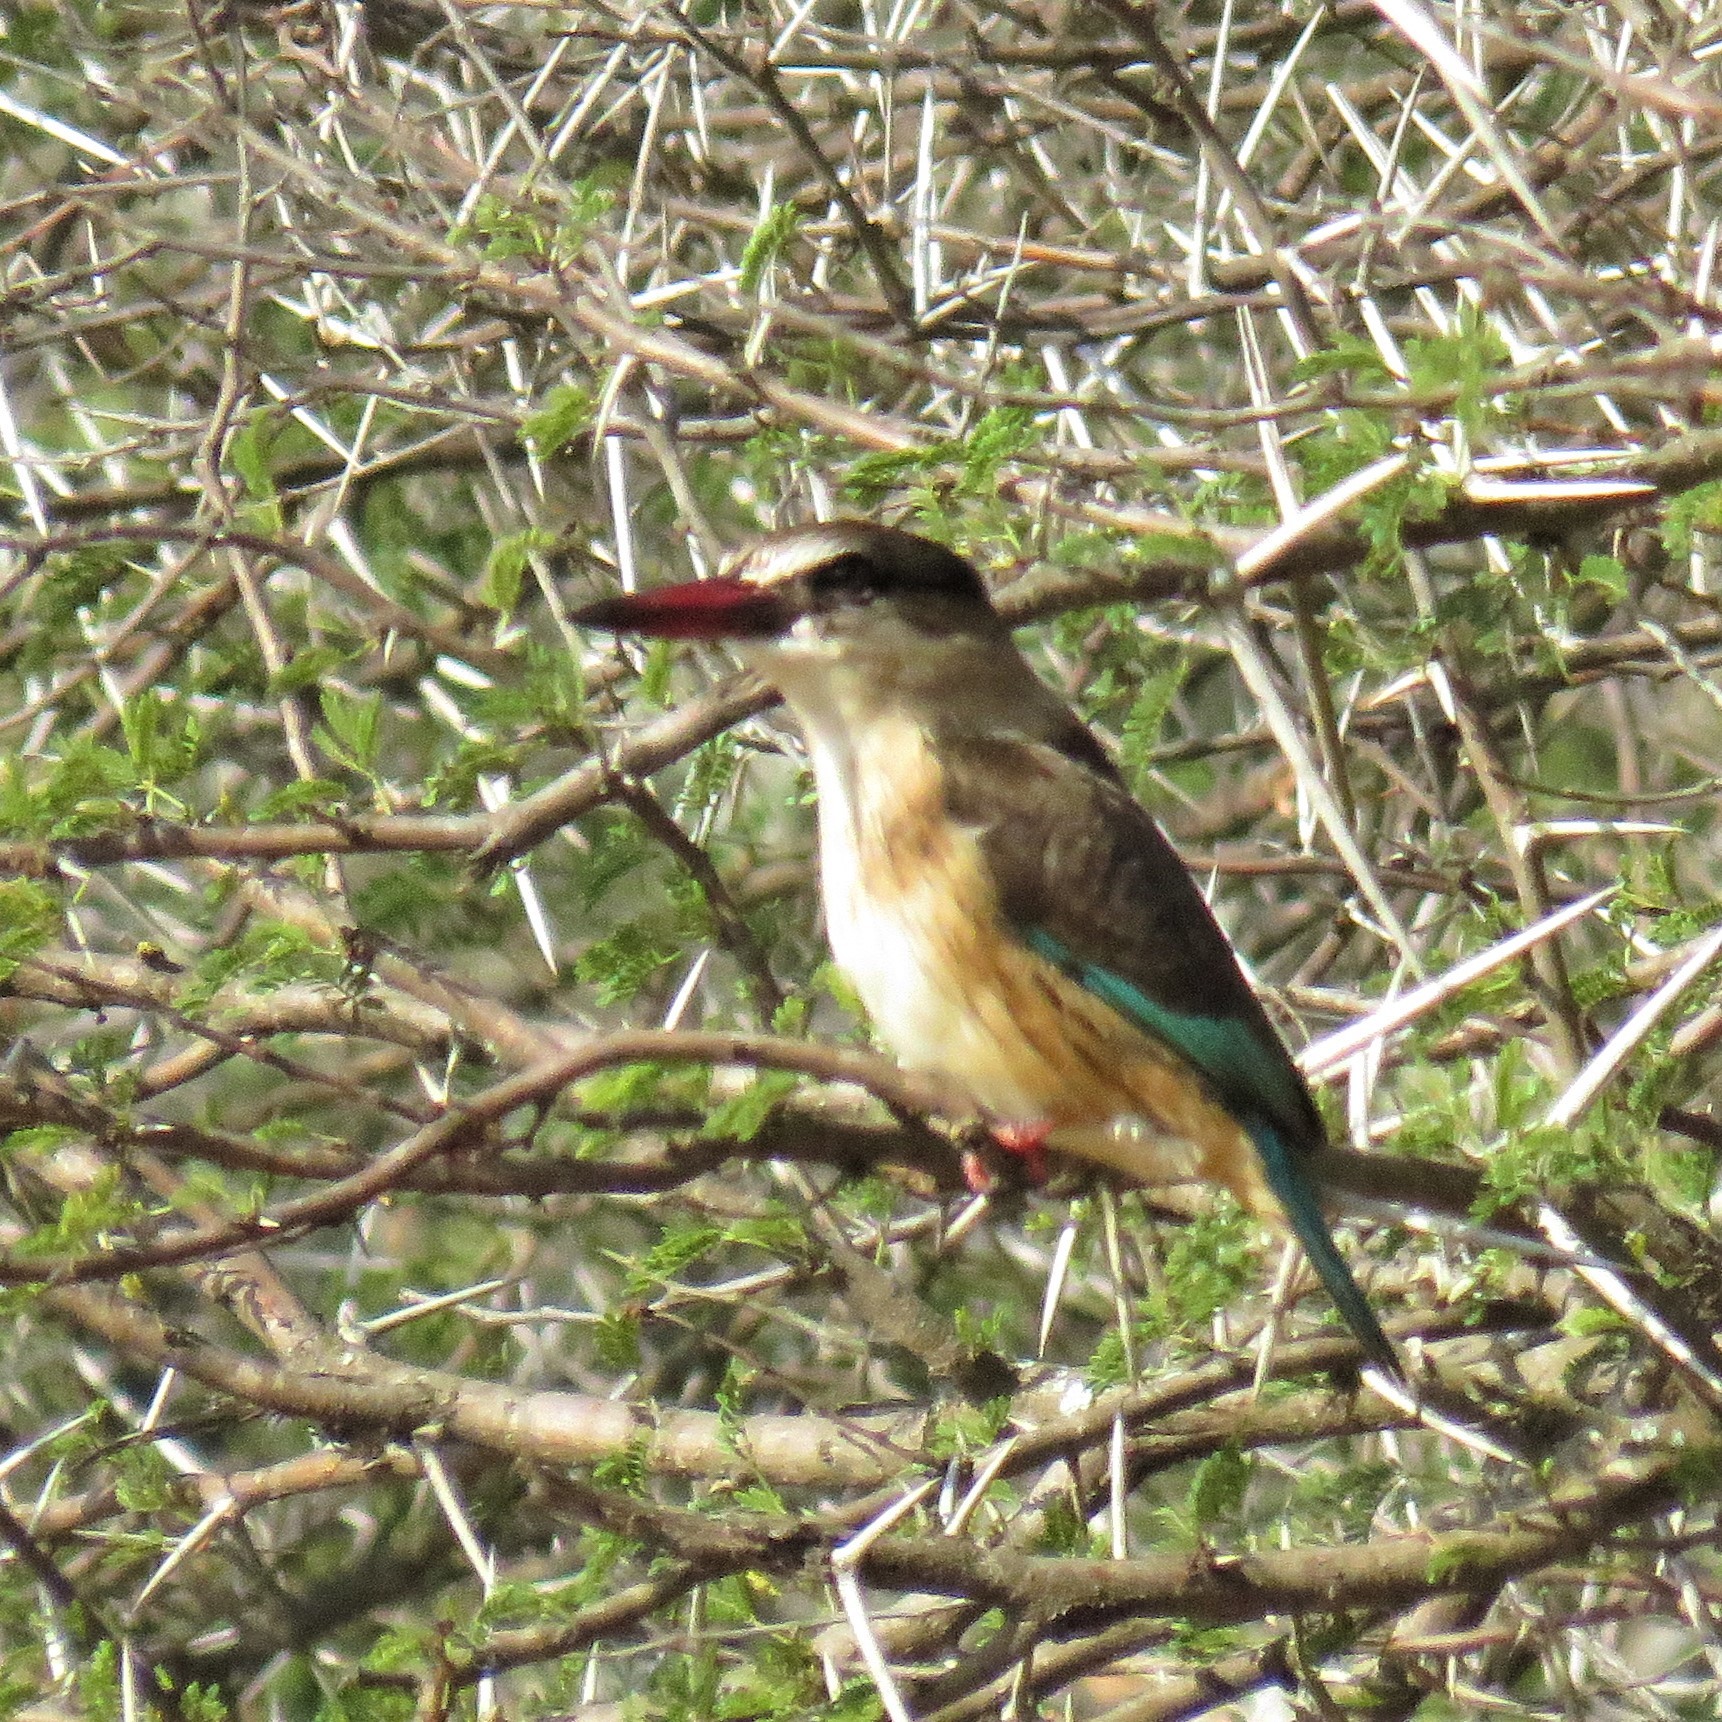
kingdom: Animalia
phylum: Chordata
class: Aves
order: Coraciiformes
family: Alcedinidae
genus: Halcyon
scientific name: Halcyon albiventris
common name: Brown-hooded kingfisher
